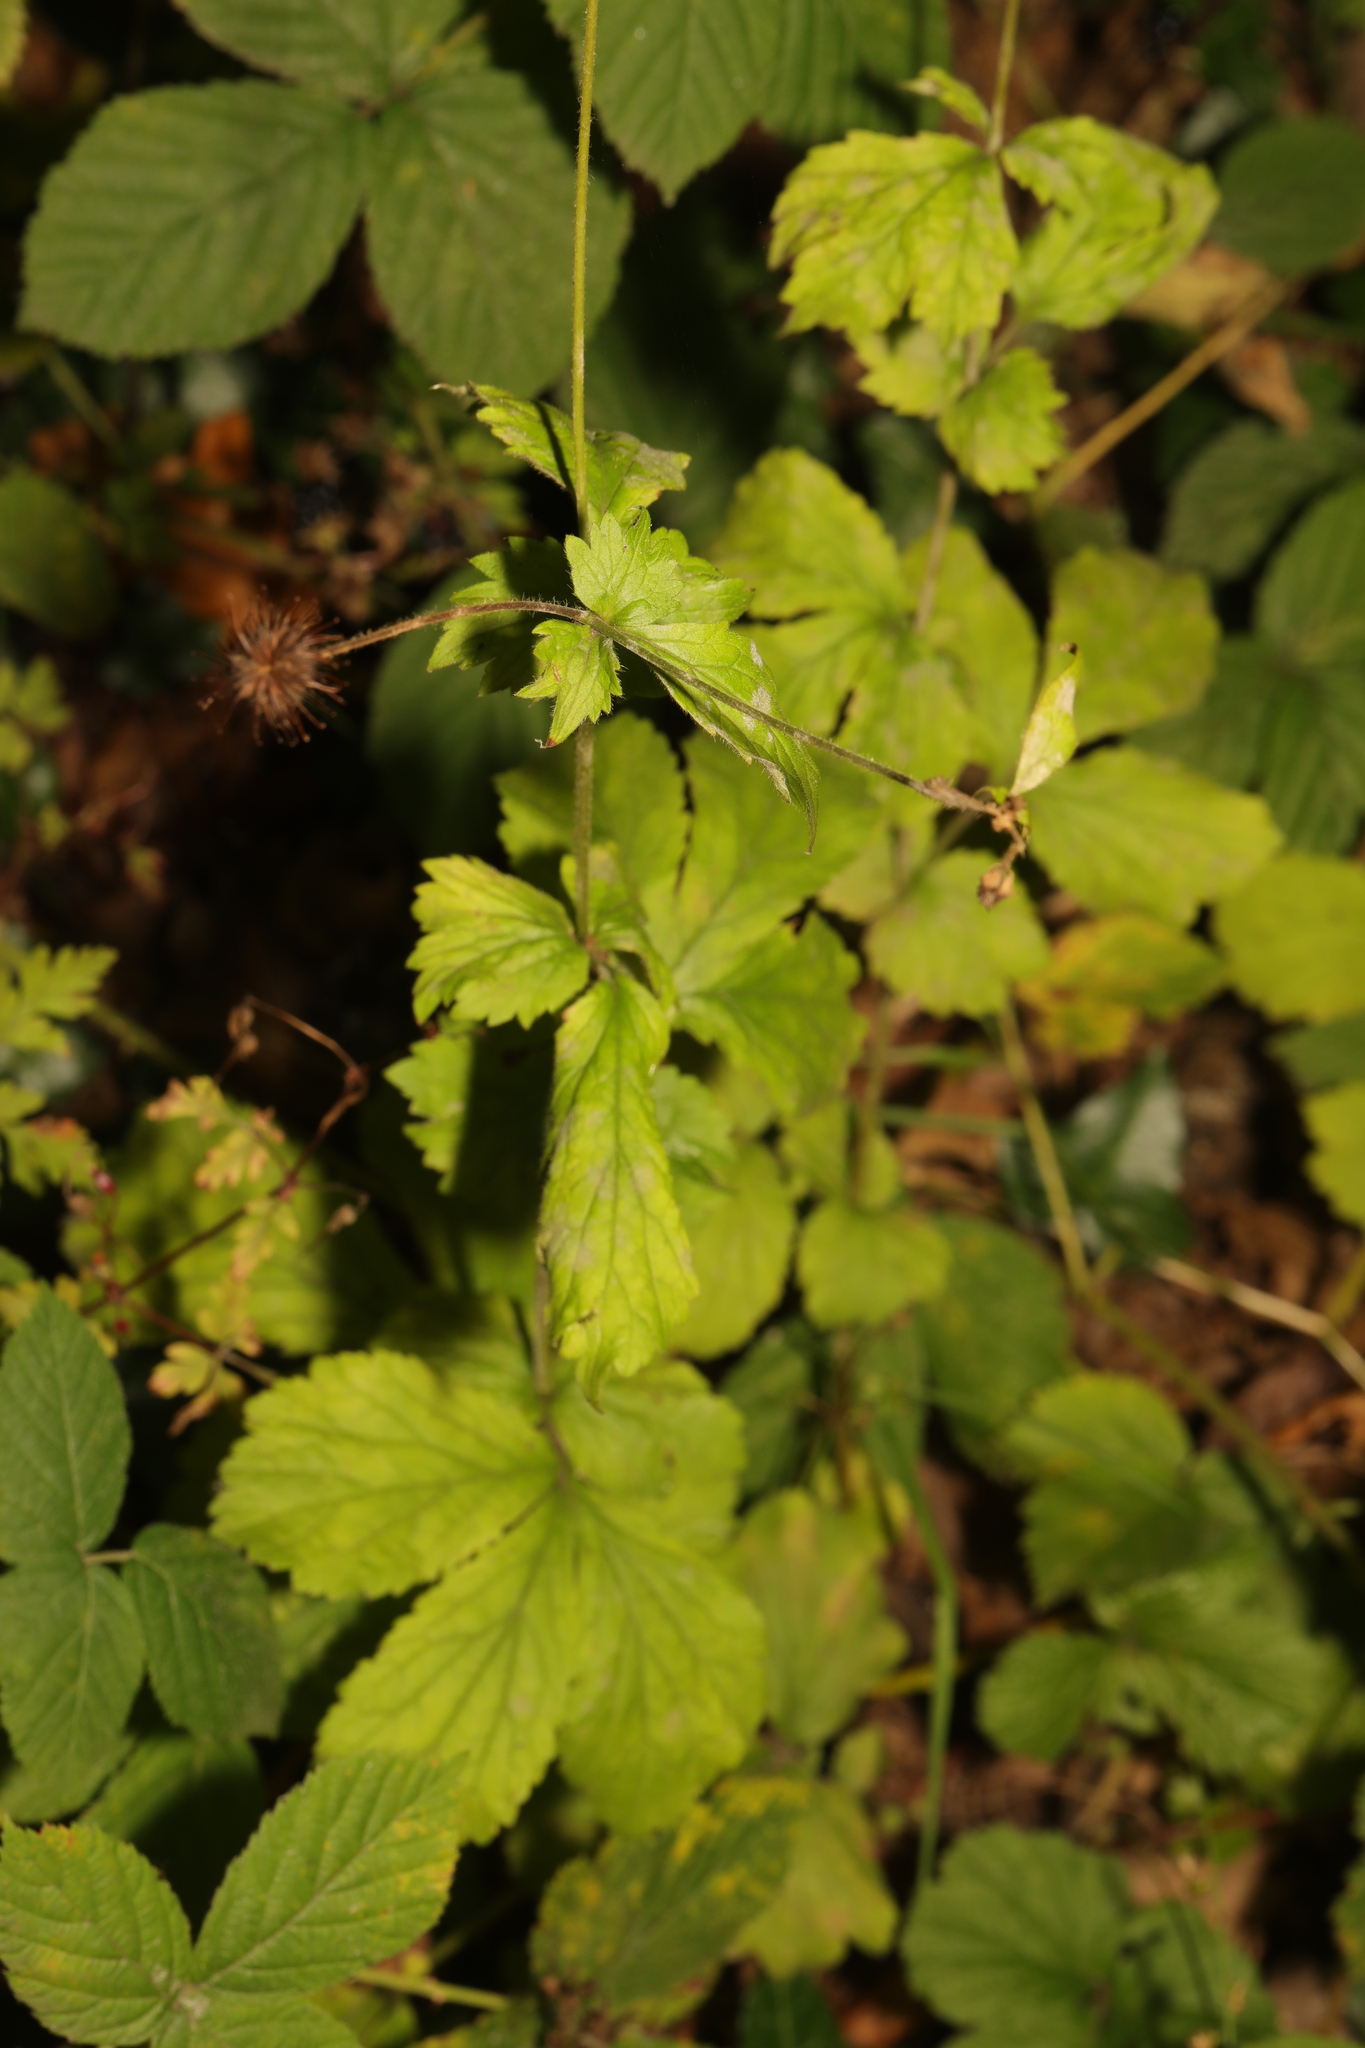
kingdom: Plantae
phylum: Tracheophyta
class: Magnoliopsida
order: Rosales
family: Rosaceae
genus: Geum
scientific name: Geum urbanum
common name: Wood avens
